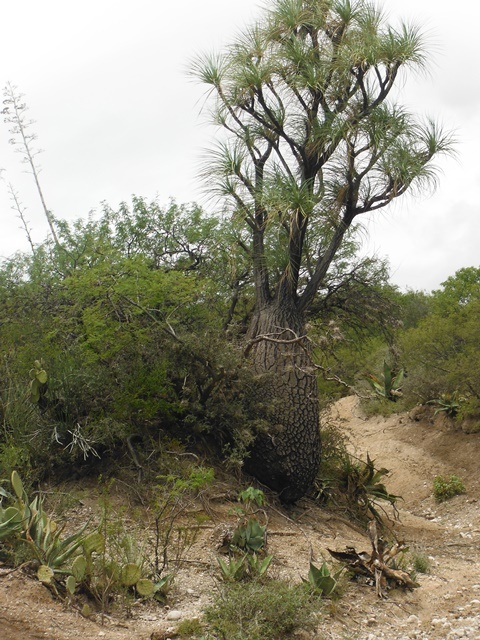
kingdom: Plantae
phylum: Tracheophyta
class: Liliopsida
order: Asparagales
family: Asparagaceae
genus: Beaucarnea
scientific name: Beaucarnea gracilis
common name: Ponytail  palm
